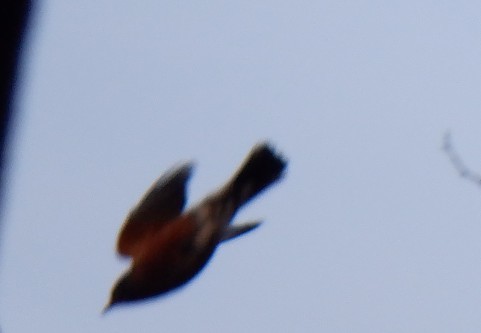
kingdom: Animalia
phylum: Chordata
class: Aves
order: Passeriformes
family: Turdidae
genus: Turdus
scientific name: Turdus migratorius
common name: American robin
